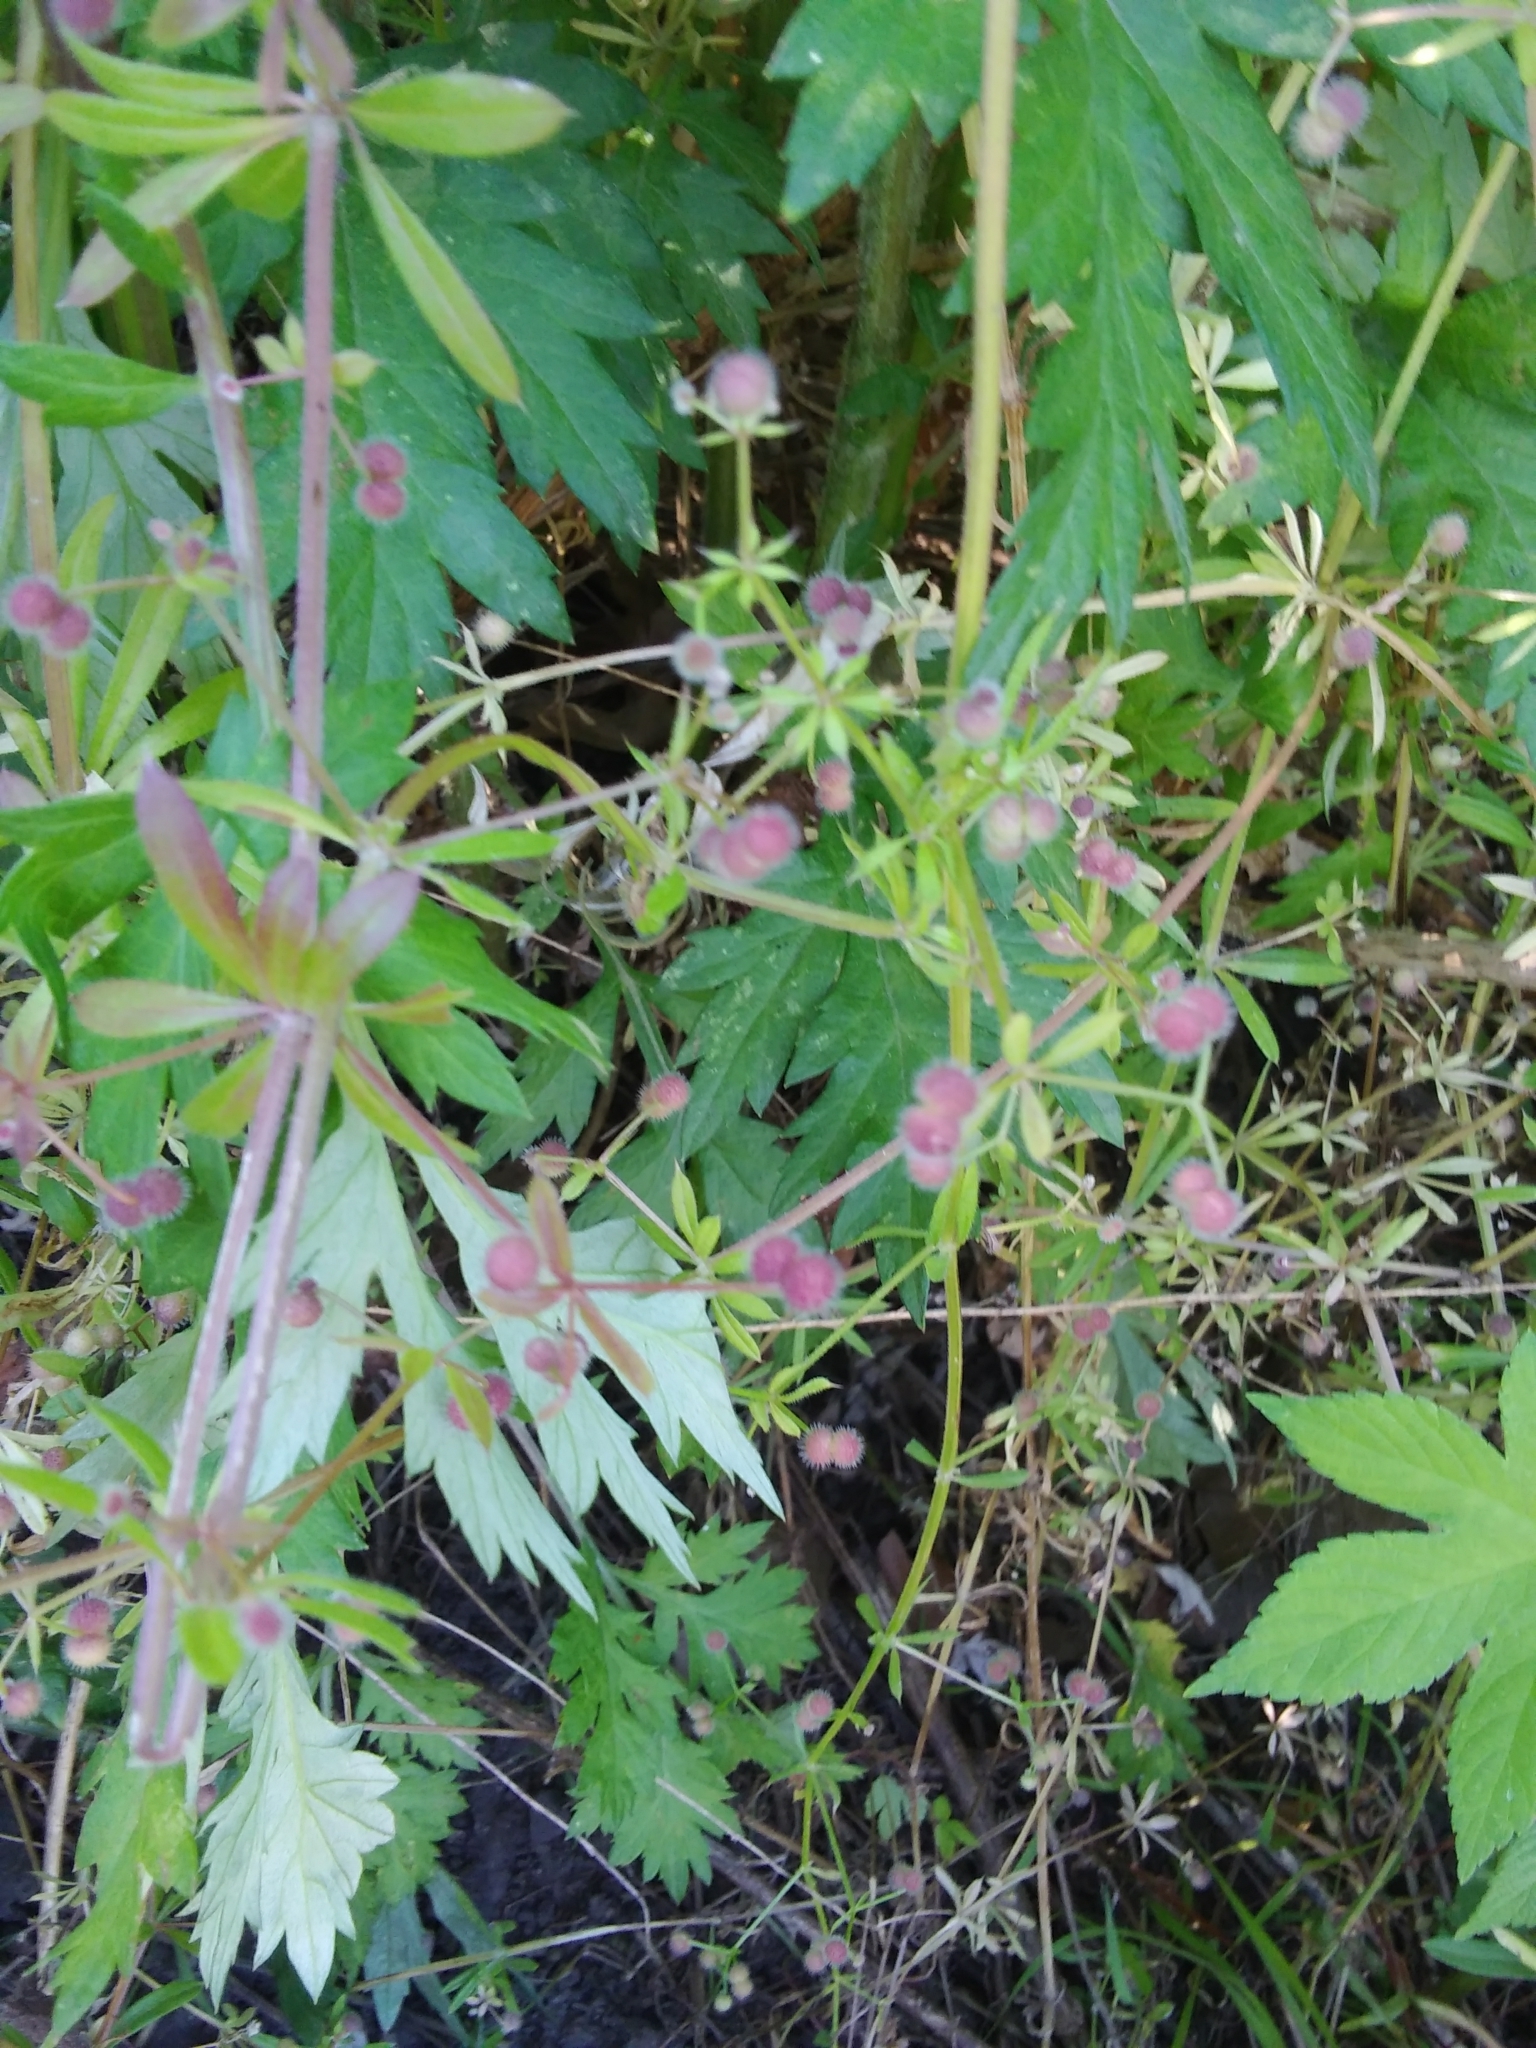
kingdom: Plantae
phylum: Tracheophyta
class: Magnoliopsida
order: Gentianales
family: Rubiaceae
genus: Galium
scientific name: Galium aparine
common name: Cleavers
